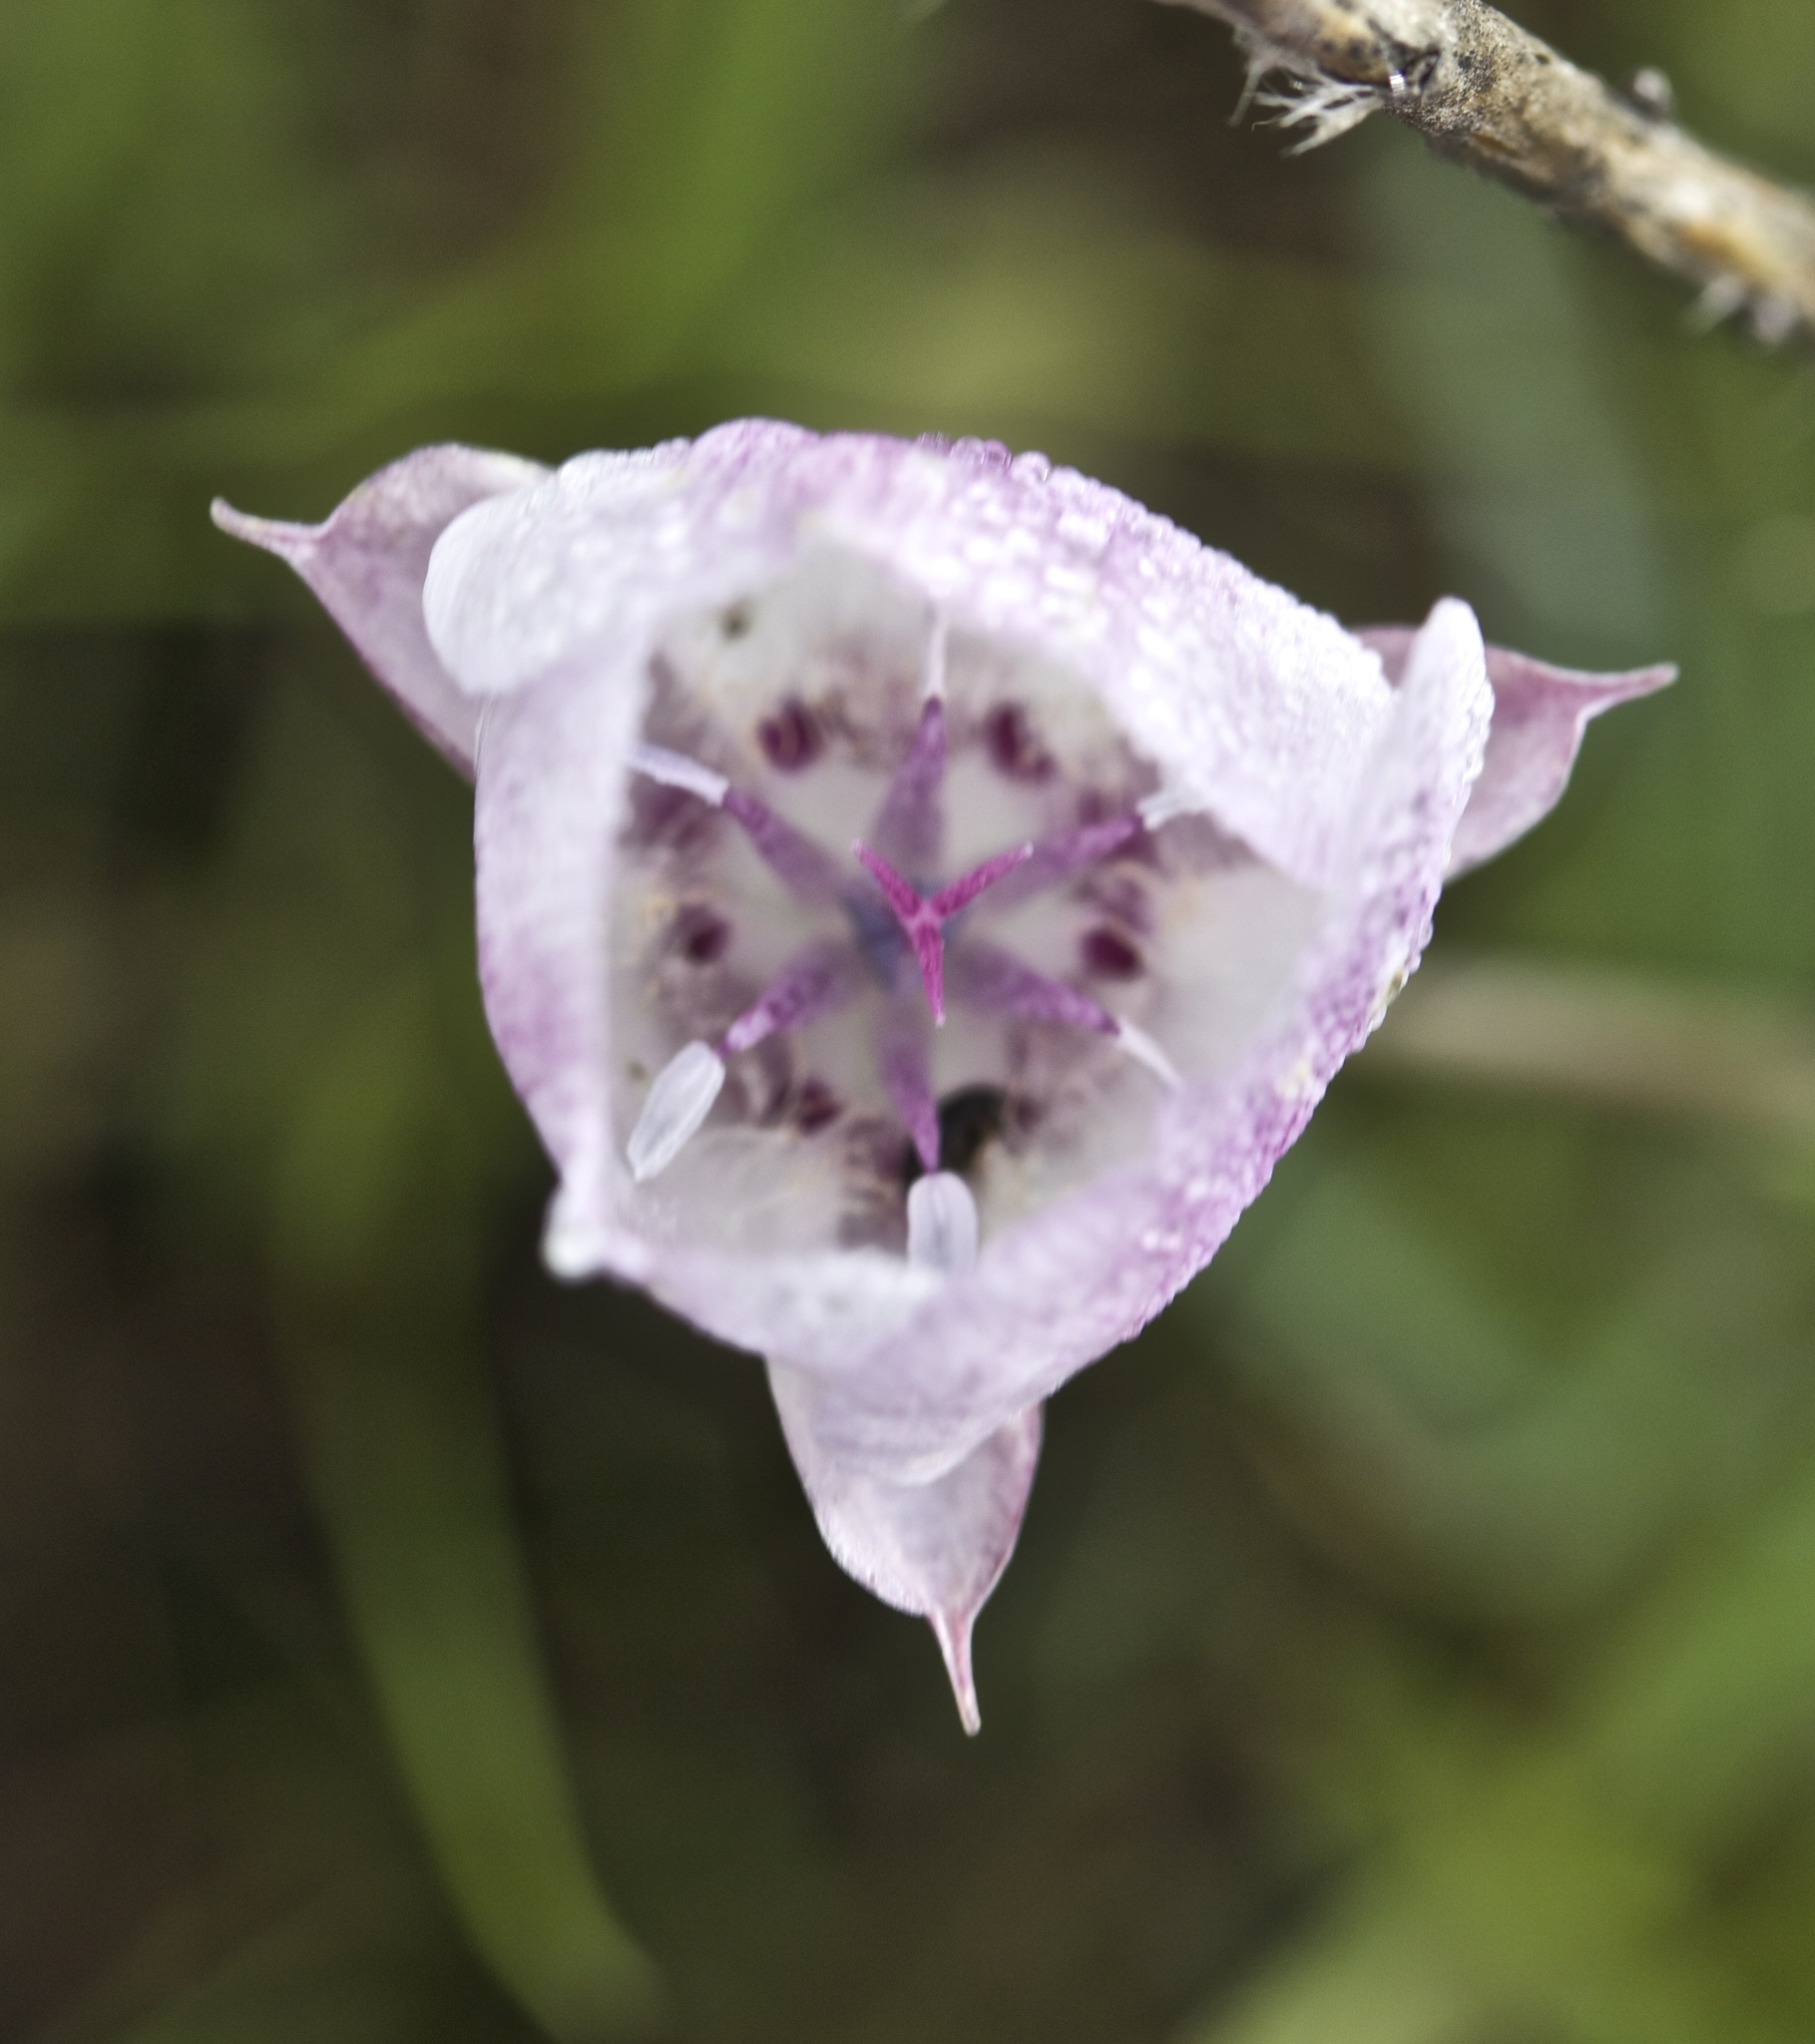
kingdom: Plantae
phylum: Tracheophyta
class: Liliopsida
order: Liliales
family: Liliaceae
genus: Calochortus
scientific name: Calochortus umbellatus
